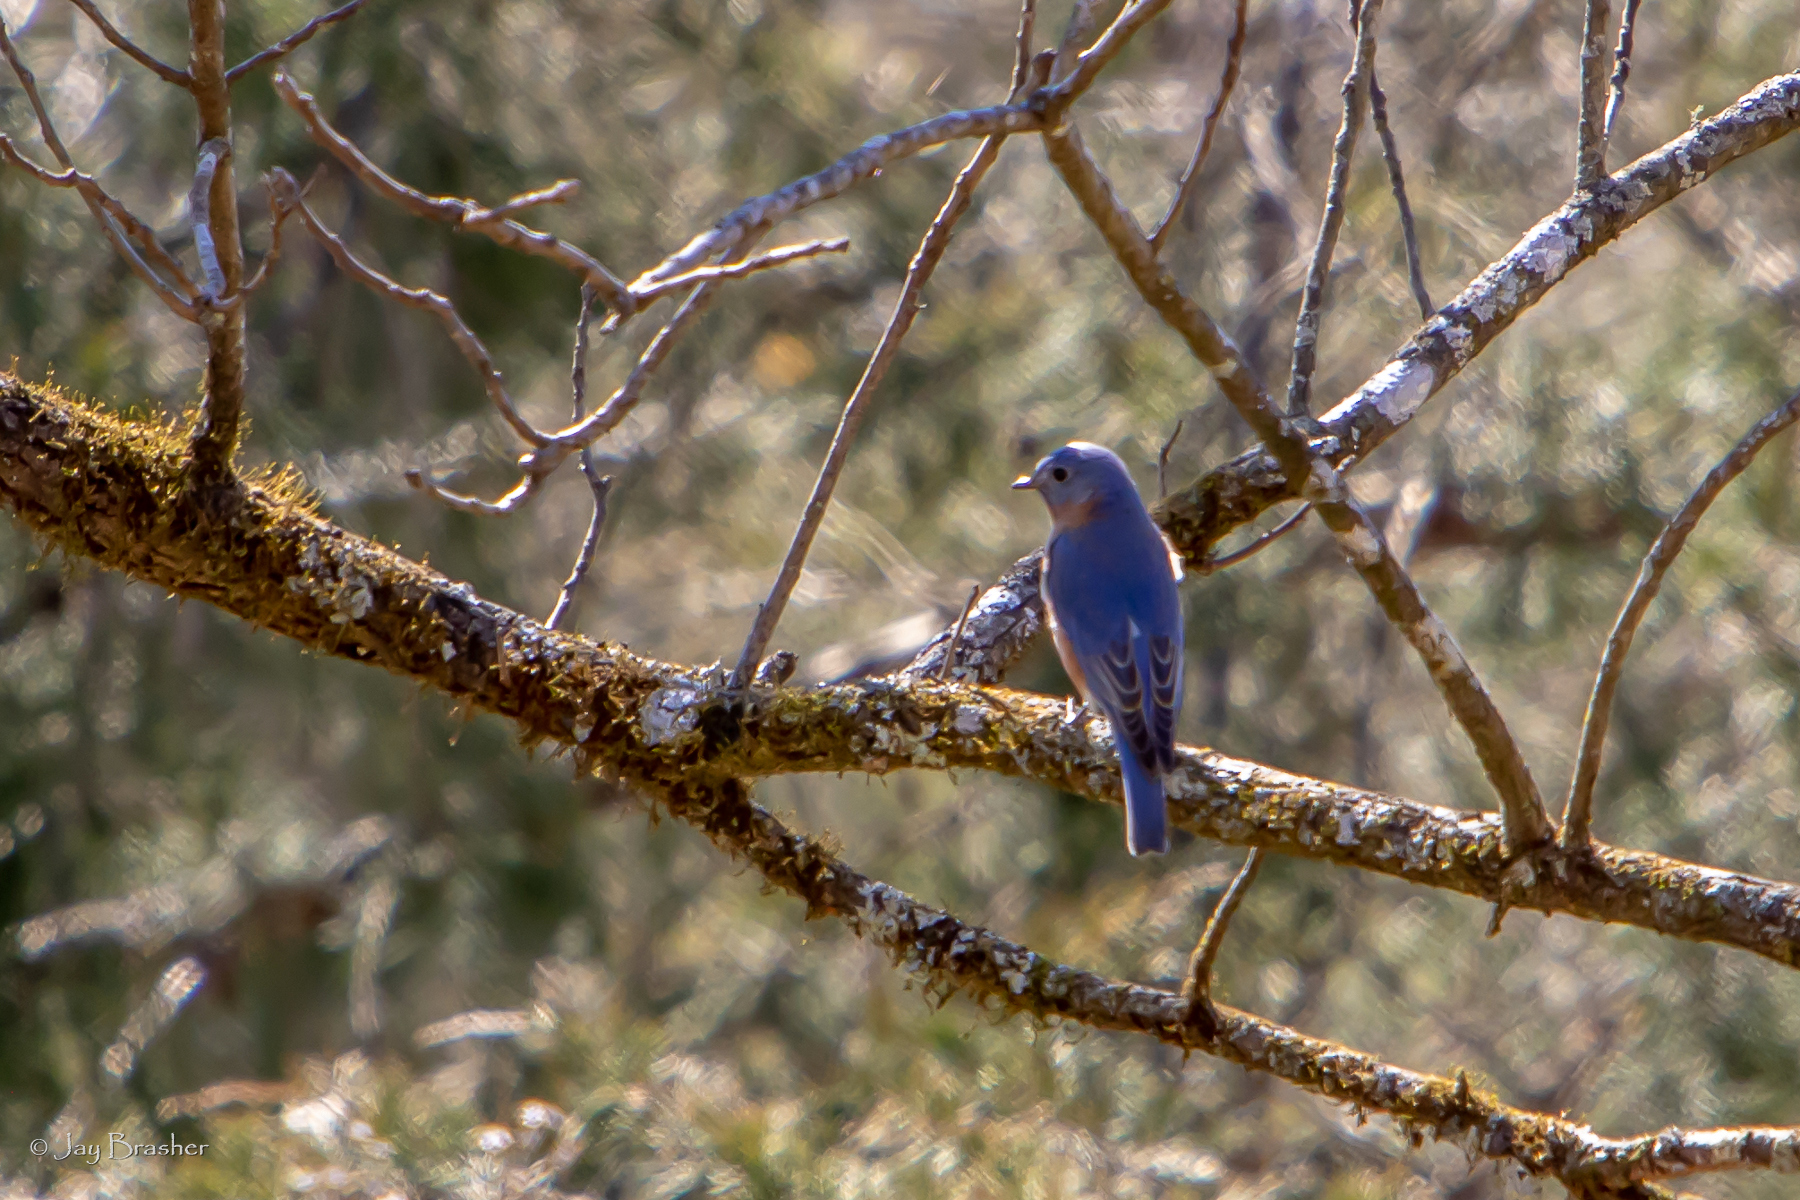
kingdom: Animalia
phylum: Chordata
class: Aves
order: Passeriformes
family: Turdidae
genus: Sialia
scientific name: Sialia sialis
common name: Eastern bluebird
